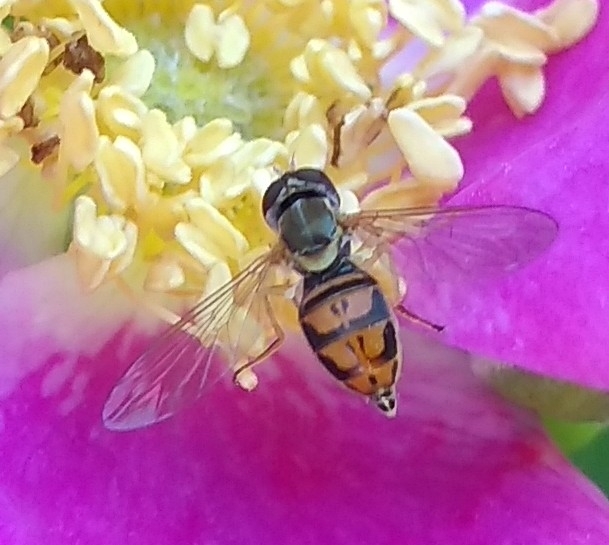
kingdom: Animalia
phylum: Arthropoda
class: Insecta
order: Diptera
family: Syrphidae
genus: Toxomerus
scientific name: Toxomerus marginatus
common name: Syrphid fly
